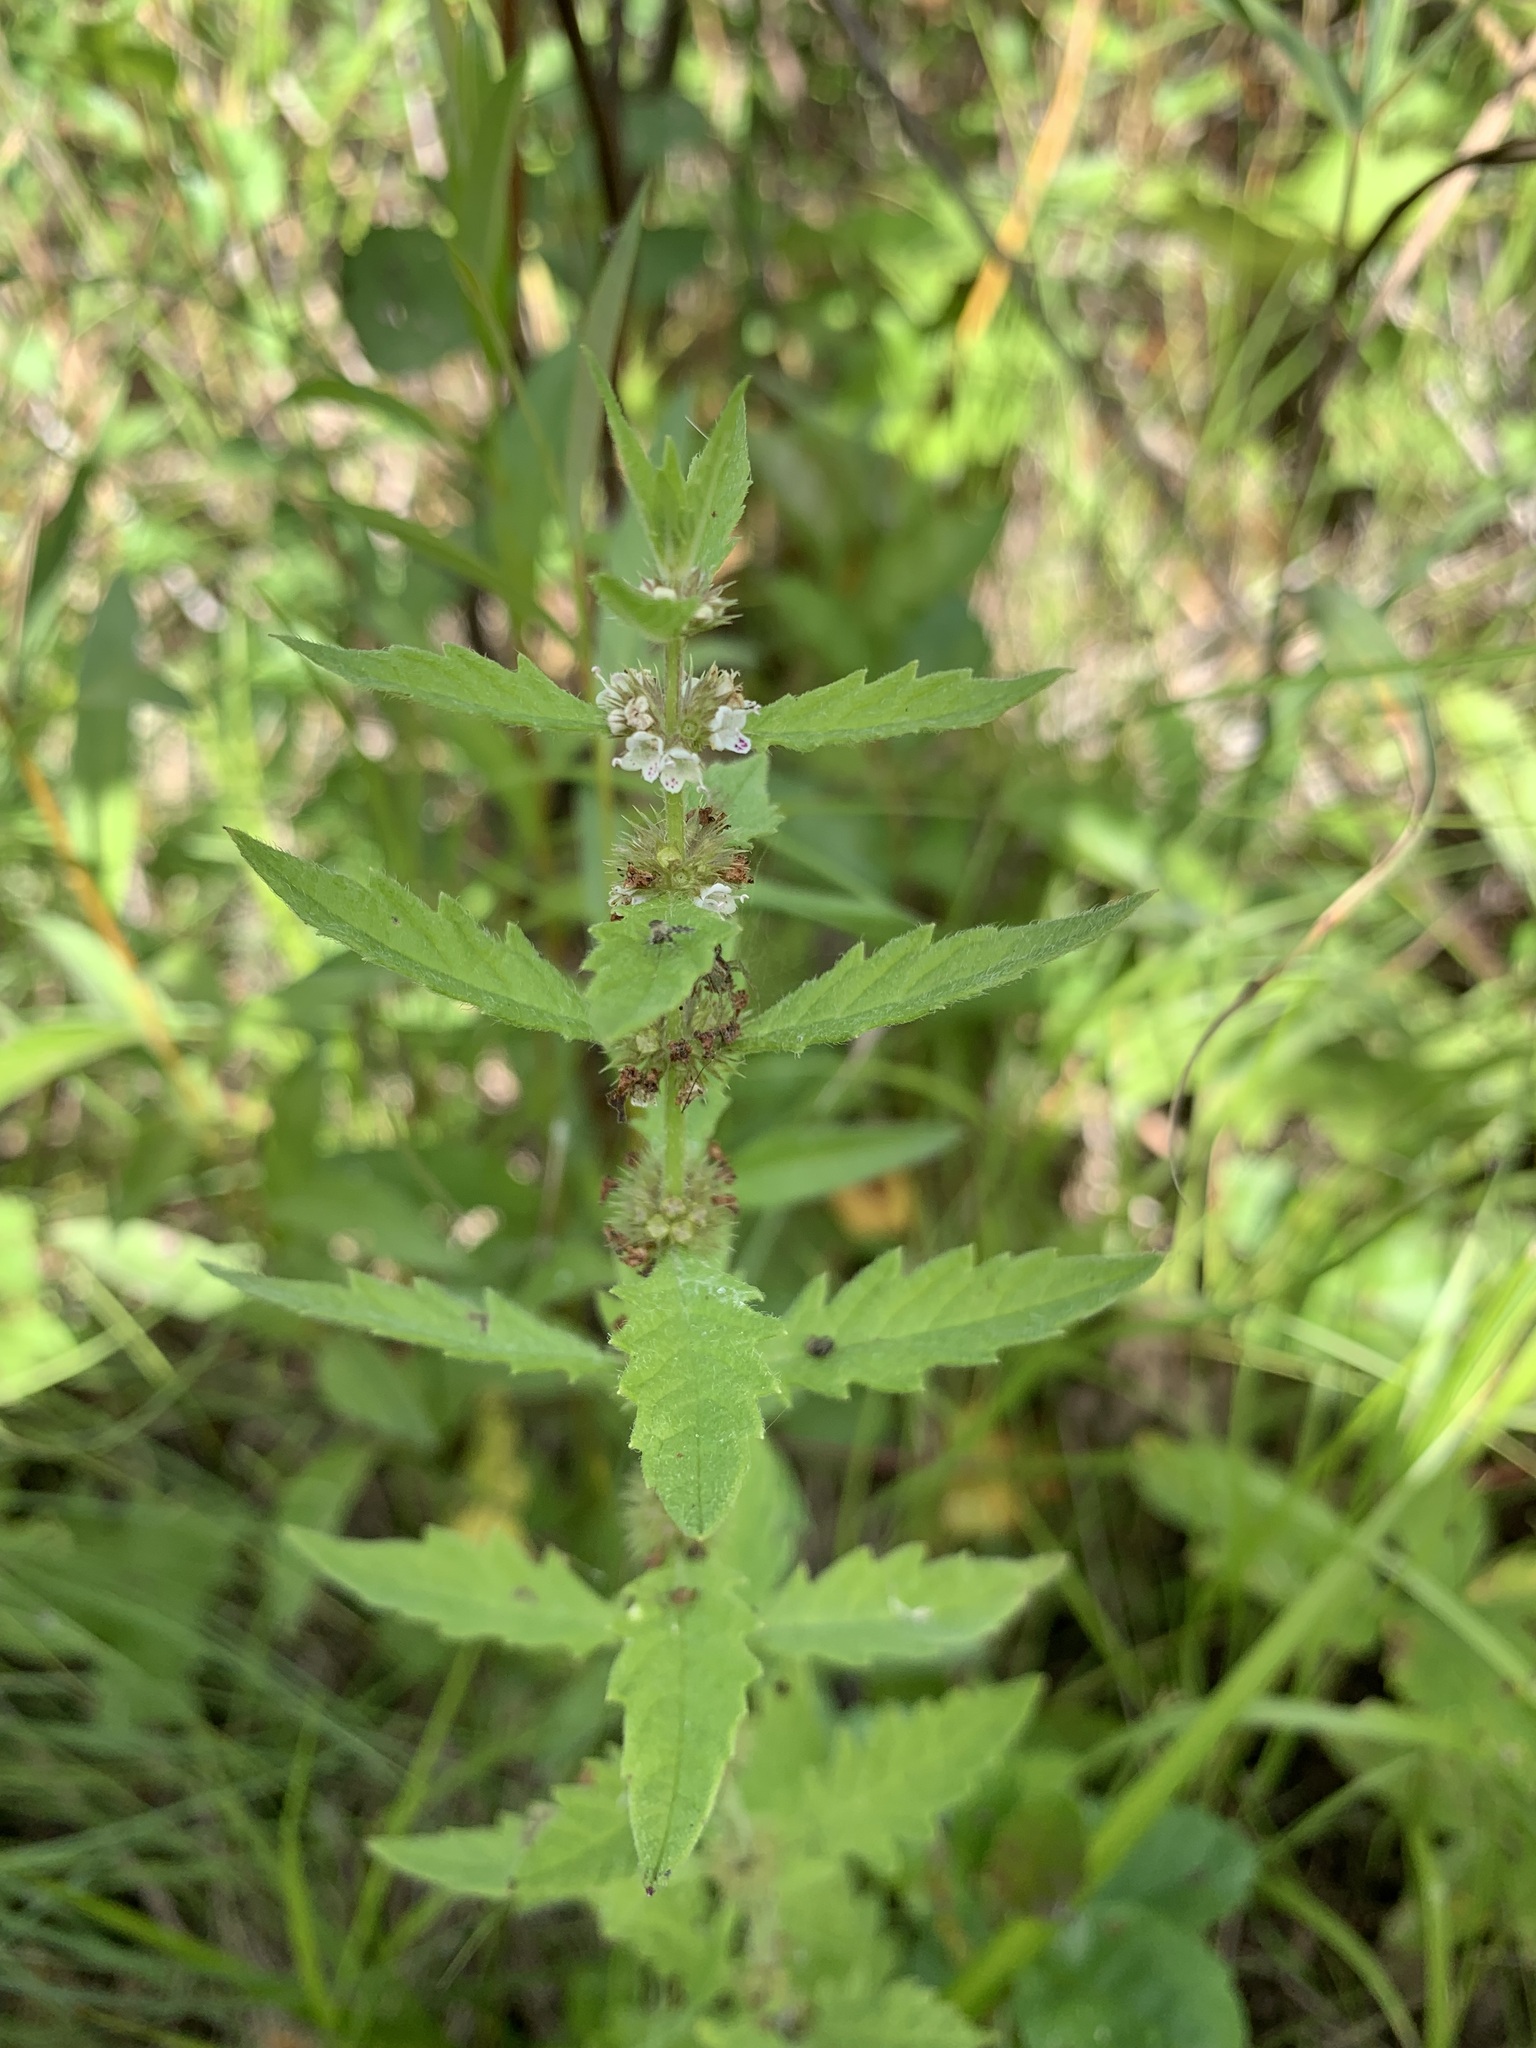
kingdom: Plantae
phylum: Tracheophyta
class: Magnoliopsida
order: Lamiales
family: Lamiaceae
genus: Lycopus
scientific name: Lycopus europaeus
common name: European bugleweed
